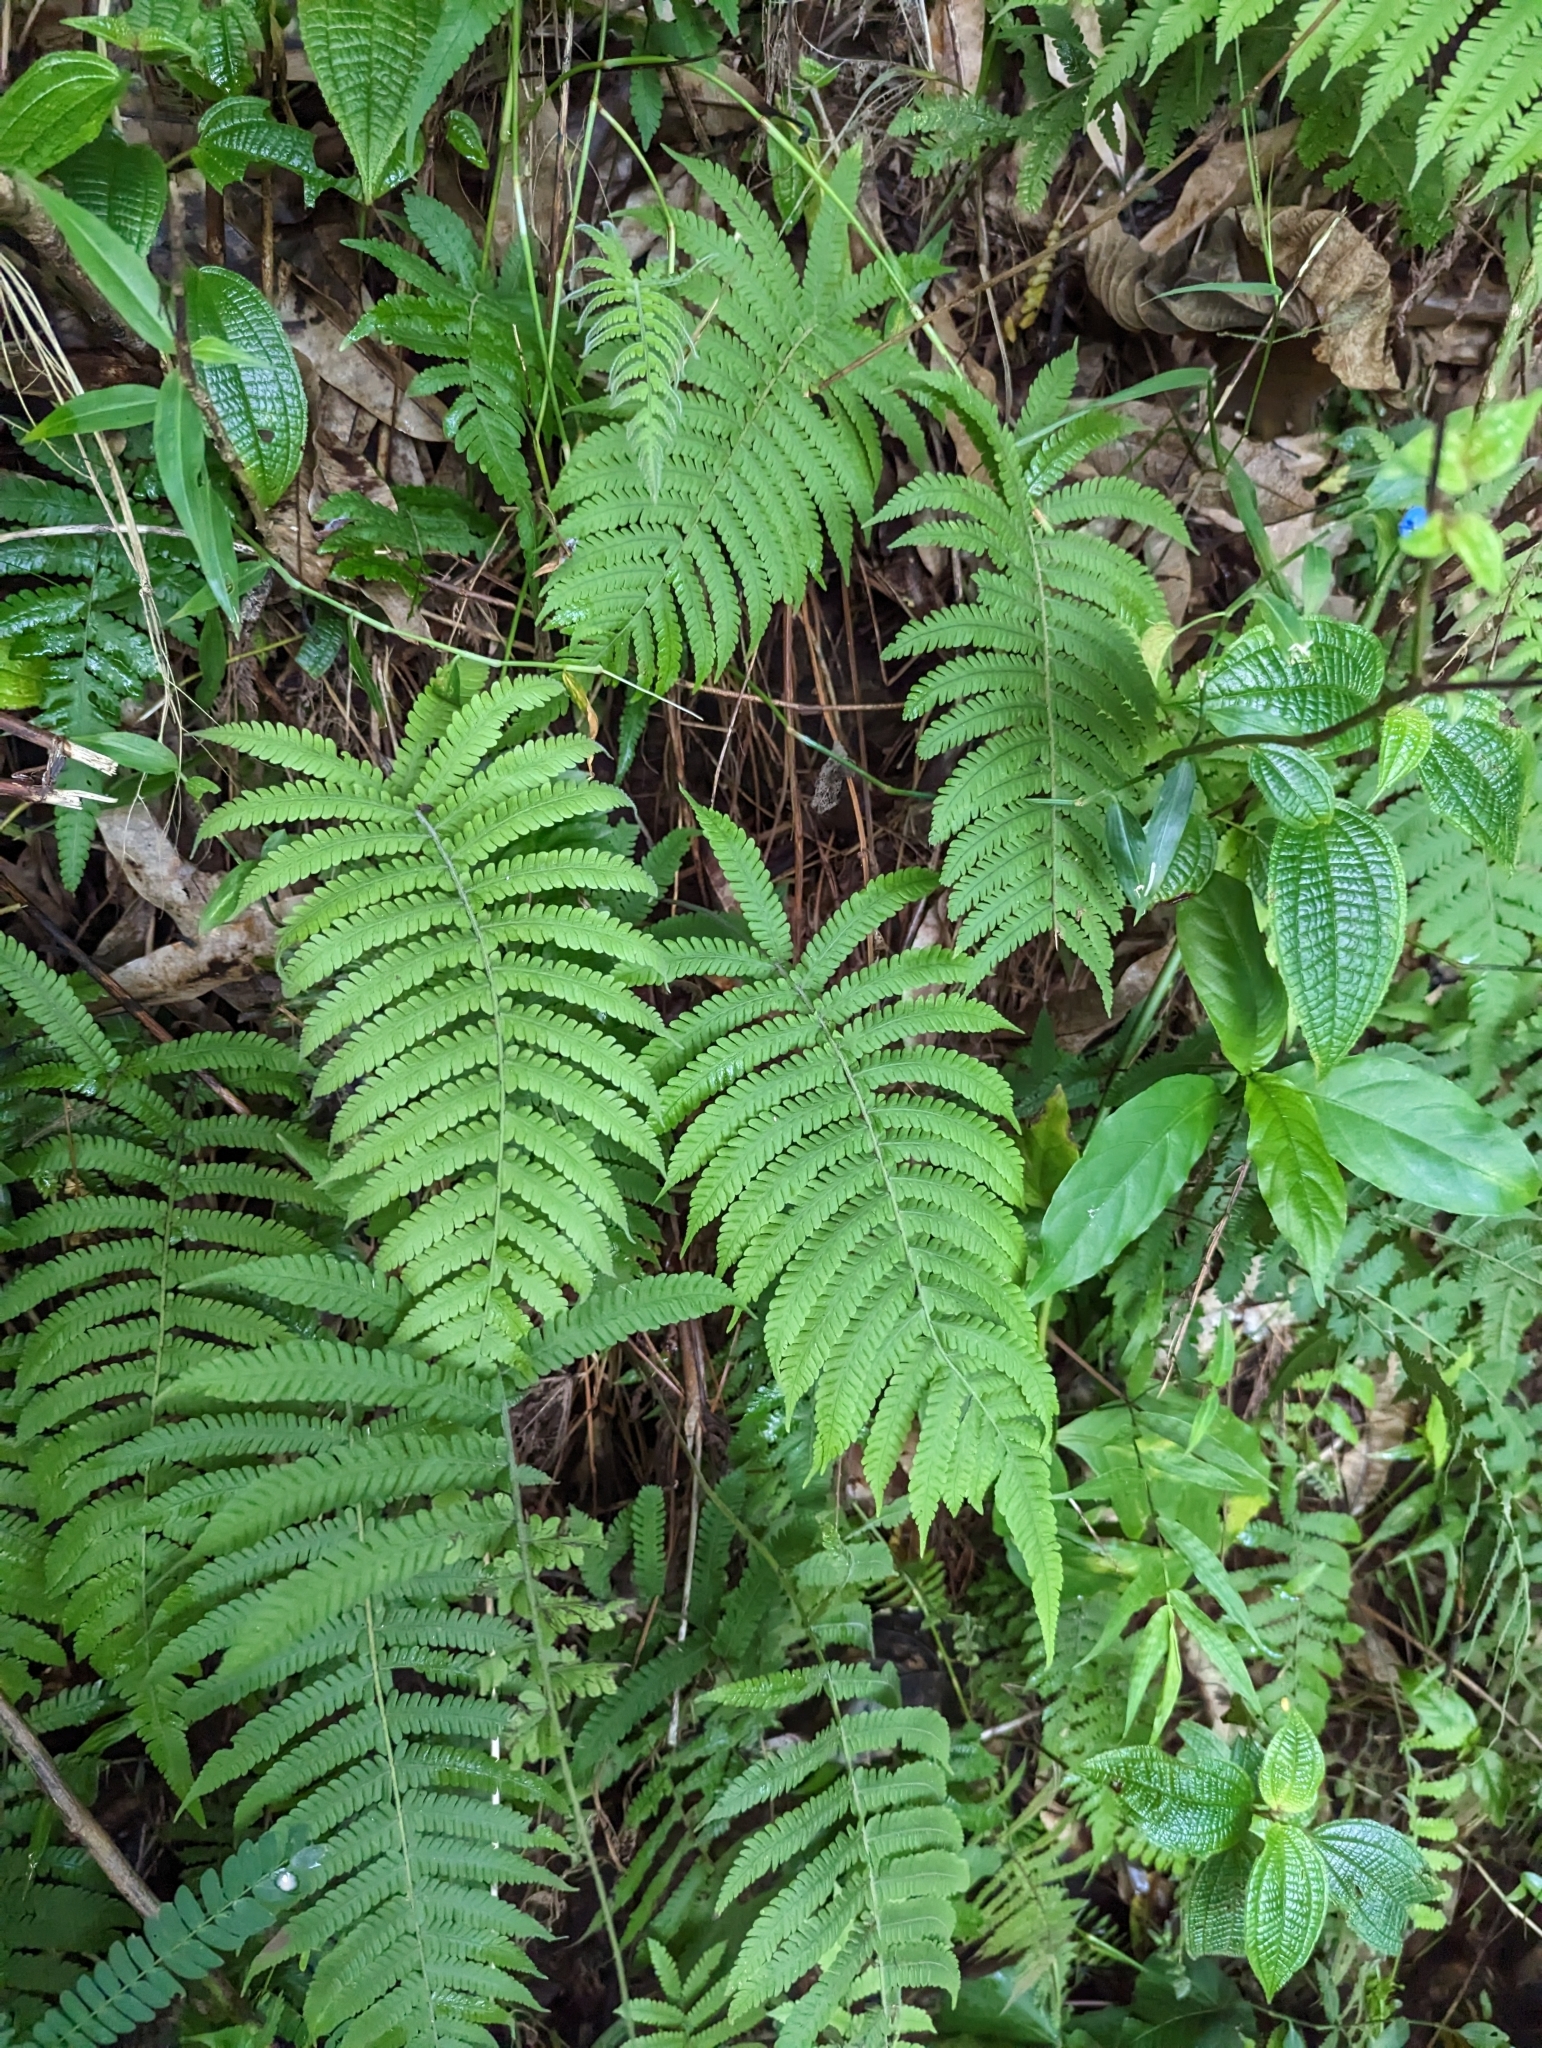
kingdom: Plantae
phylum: Tracheophyta
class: Polypodiopsida
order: Polypodiales
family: Thelypteridaceae
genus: Christella
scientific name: Christella parasitica
